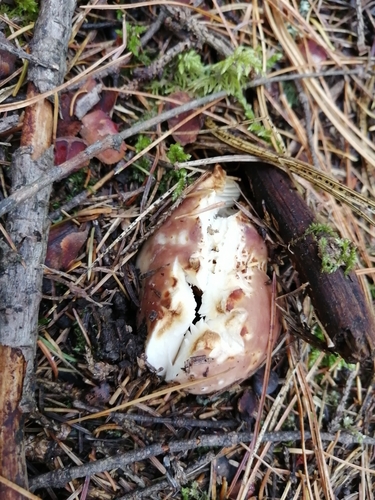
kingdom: Fungi
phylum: Basidiomycota
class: Agaricomycetes
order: Russulales
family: Russulaceae
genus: Russula
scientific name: Russula vesca
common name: Bare-toothed russula
